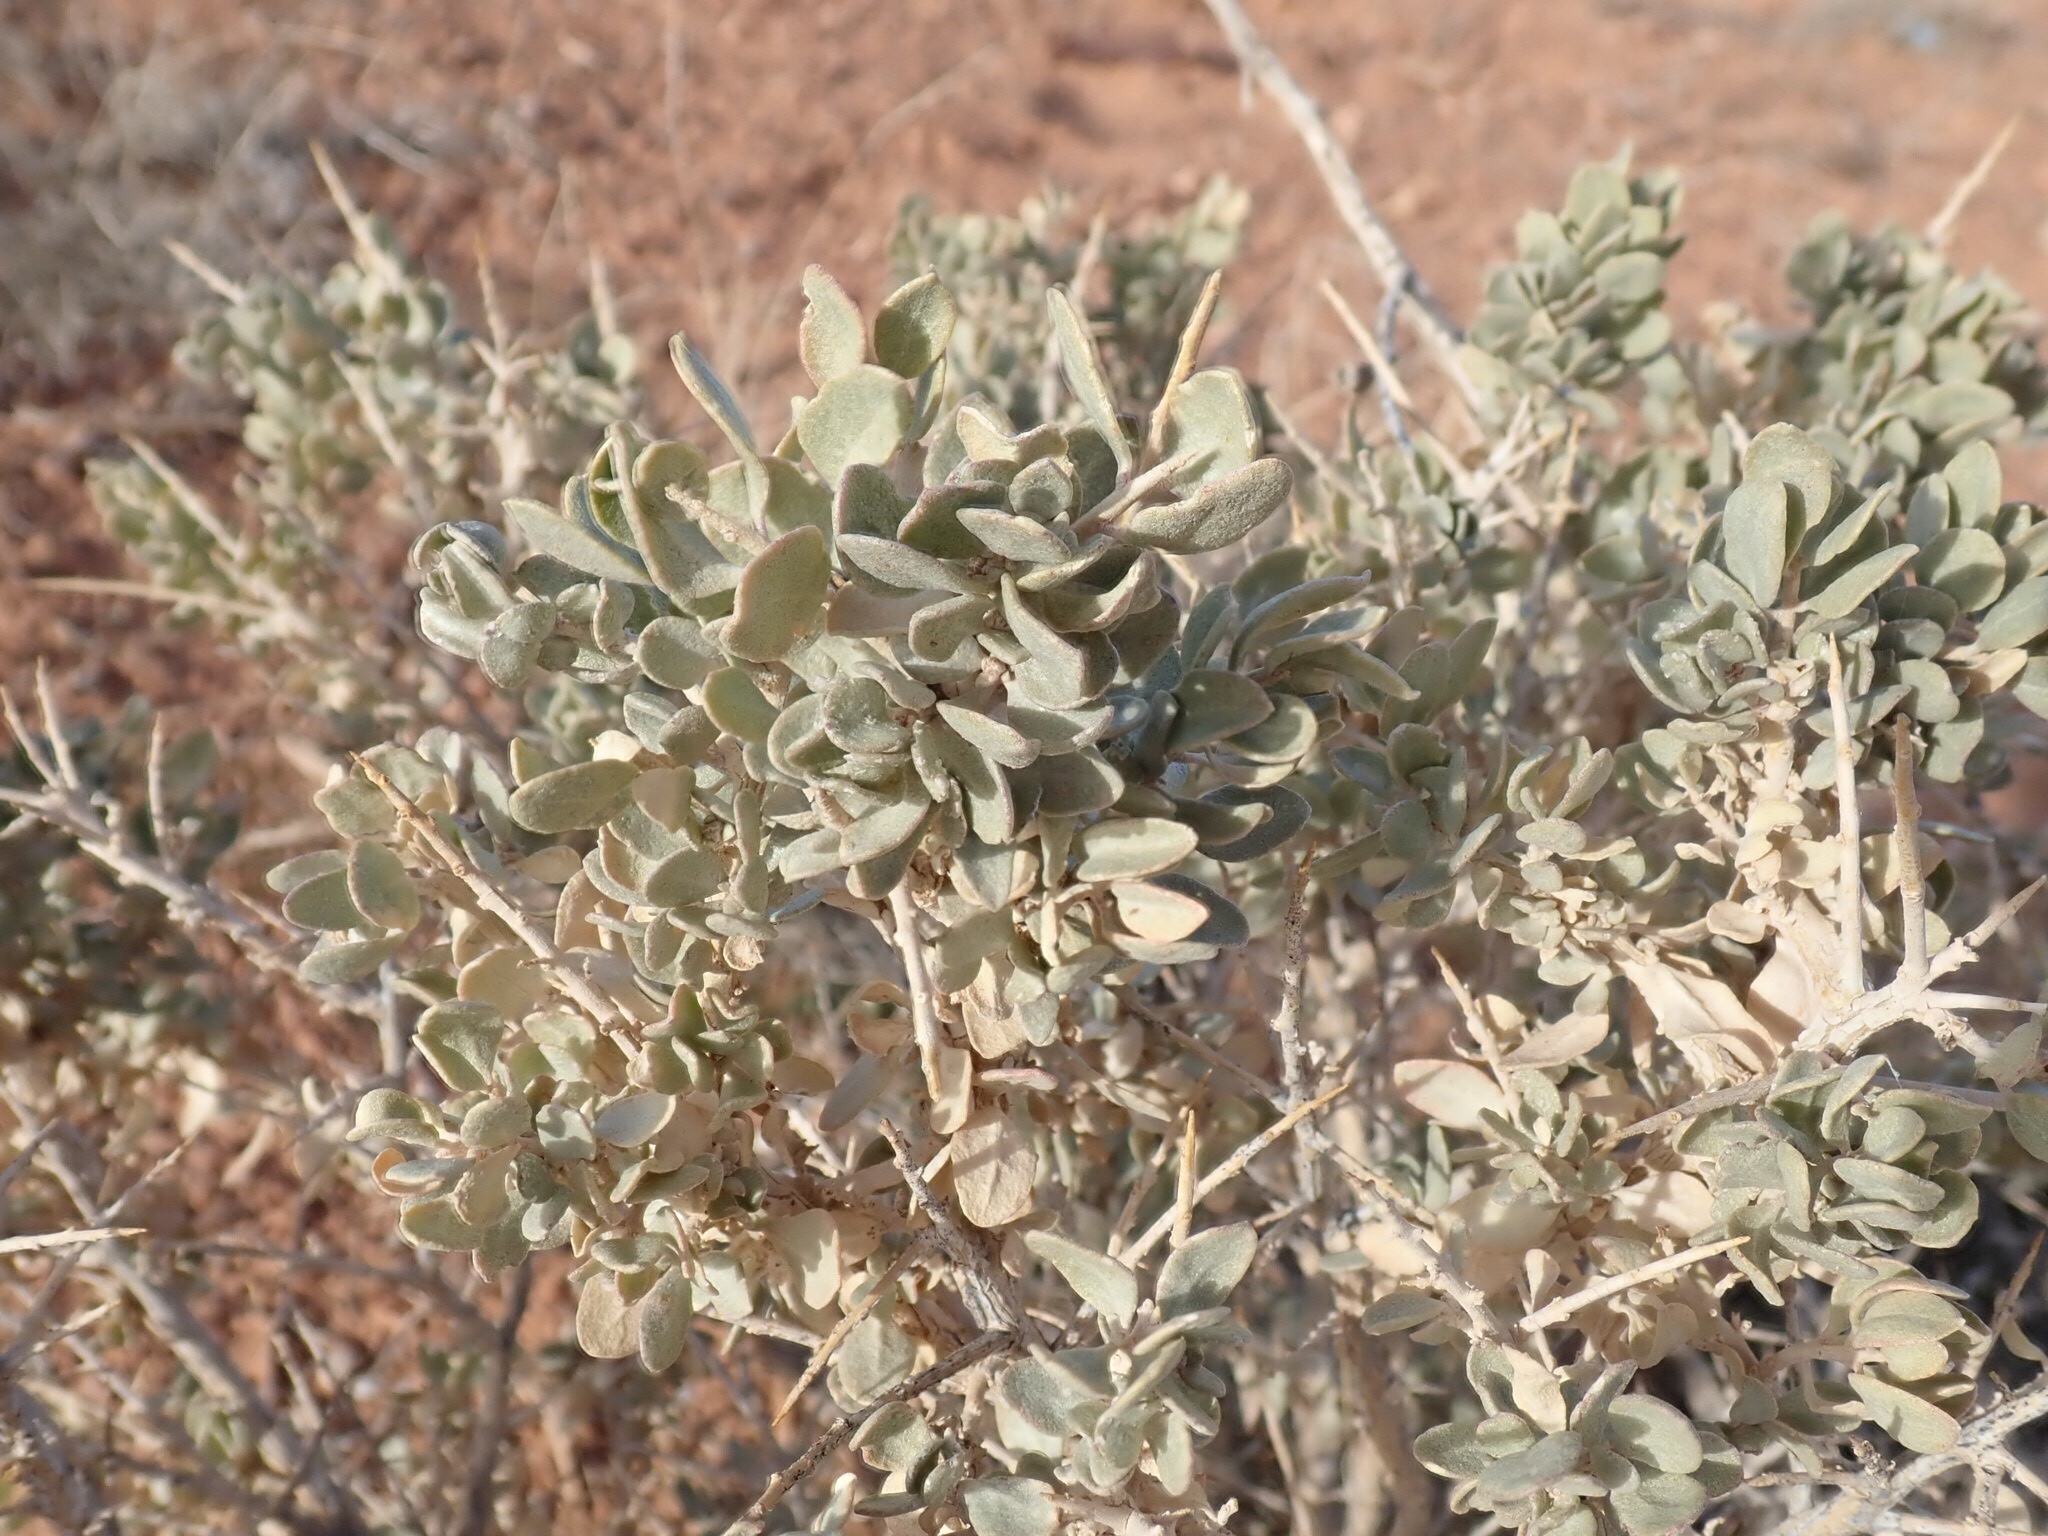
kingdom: Plantae
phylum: Tracheophyta
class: Magnoliopsida
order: Caryophyllales
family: Amaranthaceae
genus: Atriplex
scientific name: Atriplex confertifolia
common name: Shadscale
